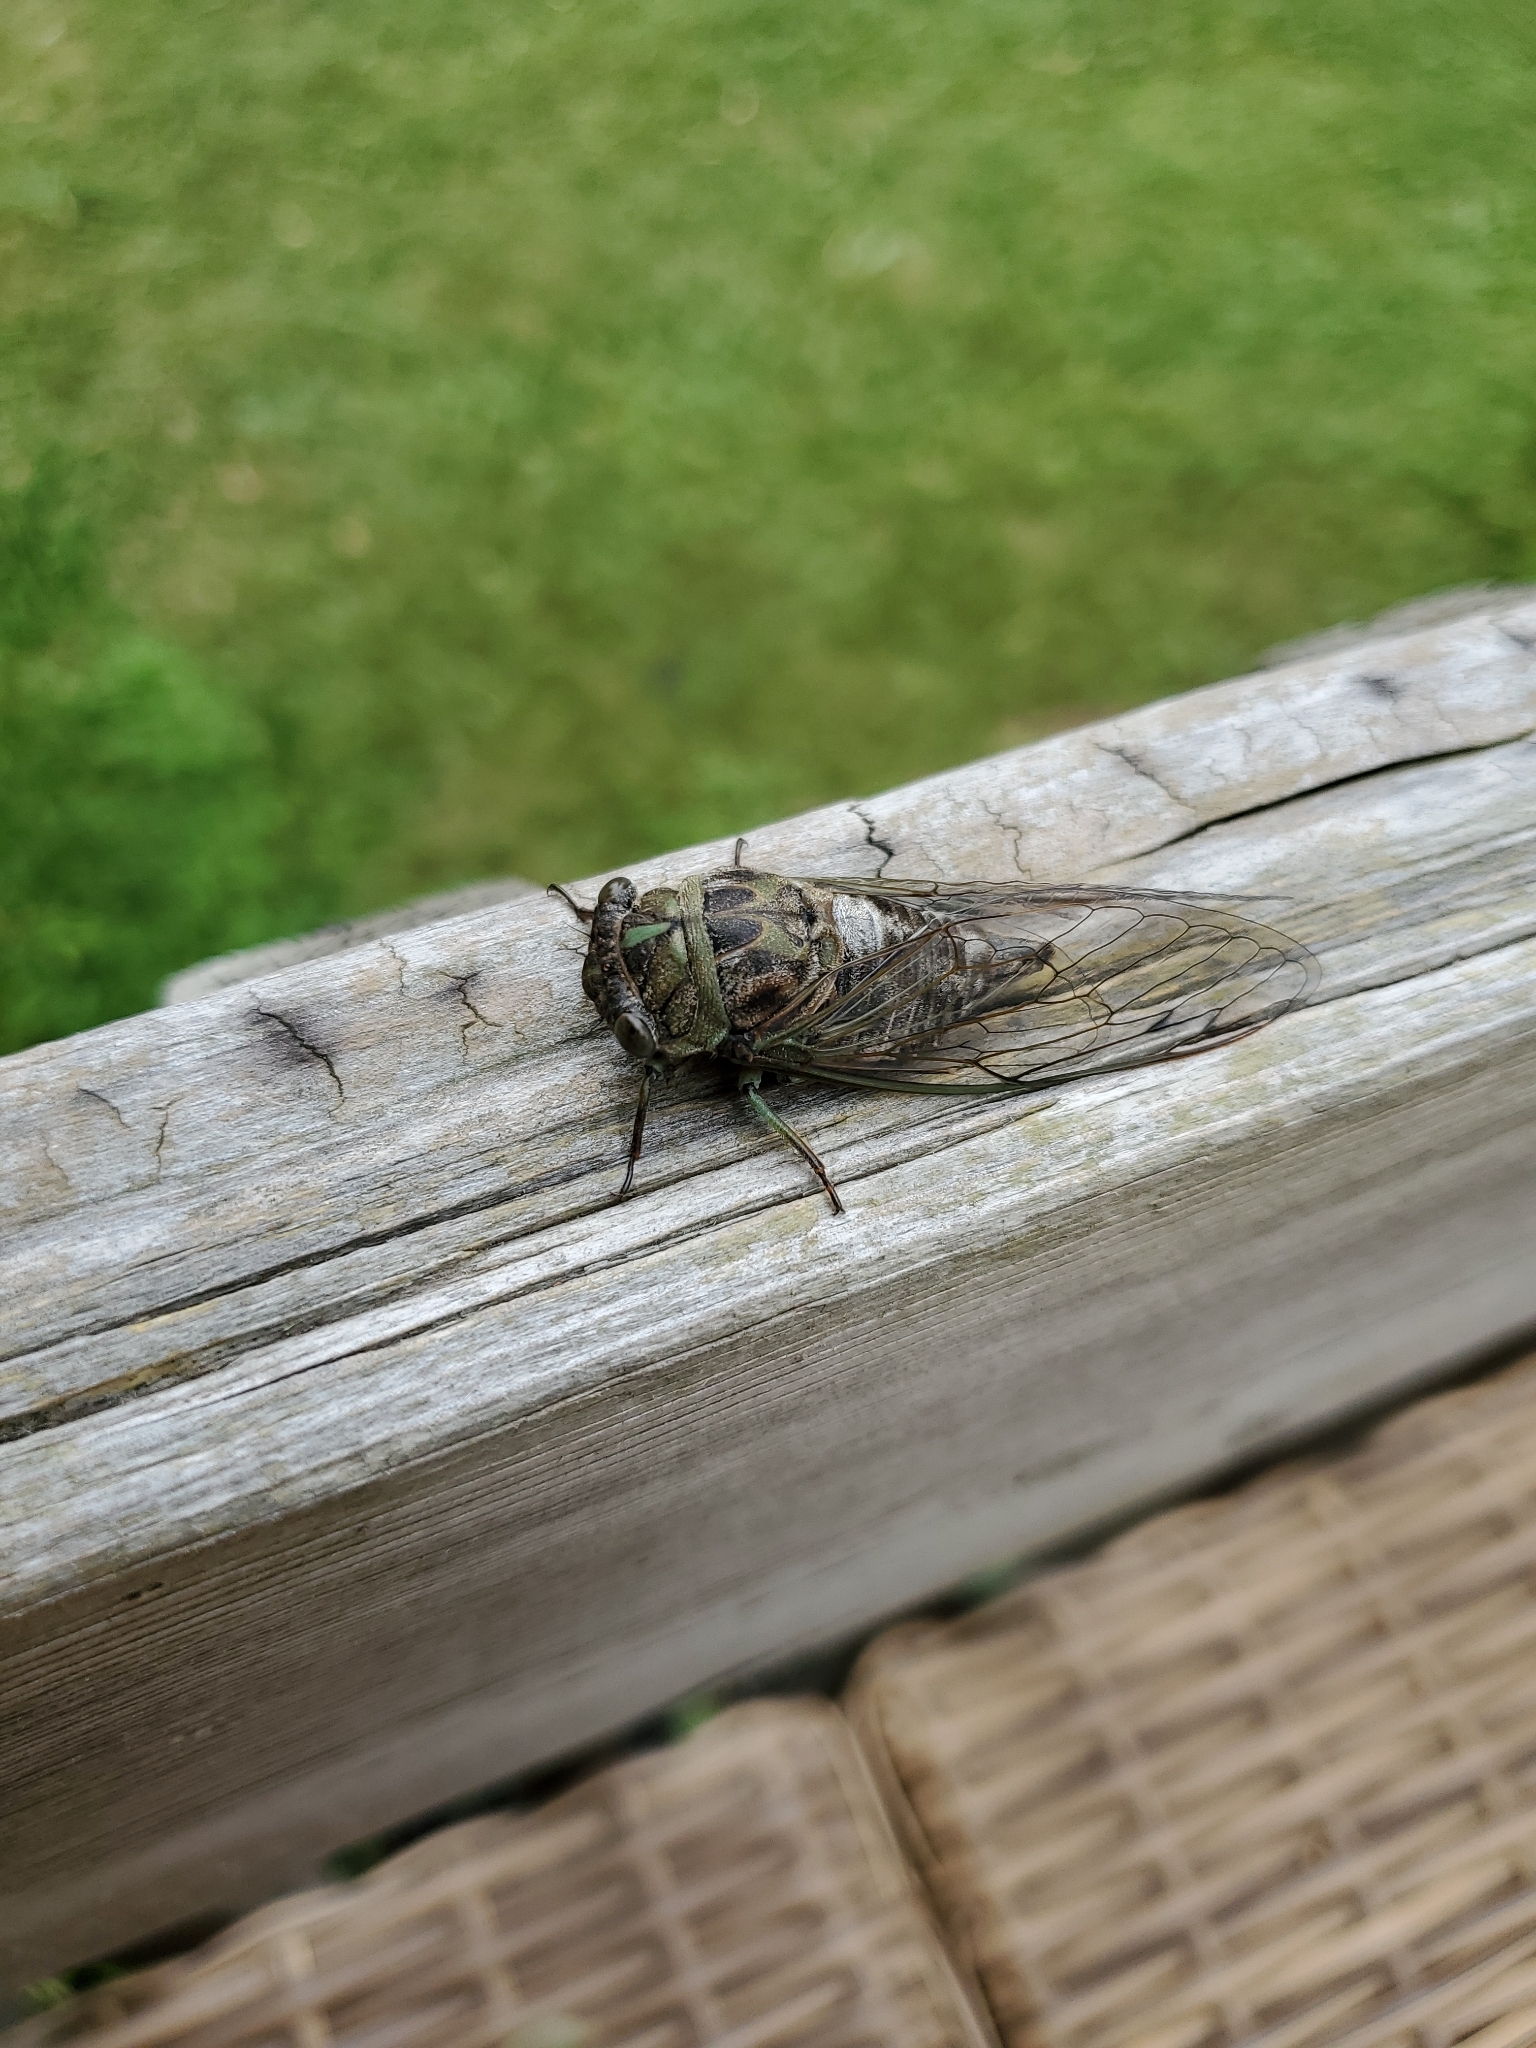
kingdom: Animalia
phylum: Arthropoda
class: Insecta
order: Hemiptera
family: Cicadidae
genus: Neotibicen
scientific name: Neotibicen canicularis
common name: God-day cicada
